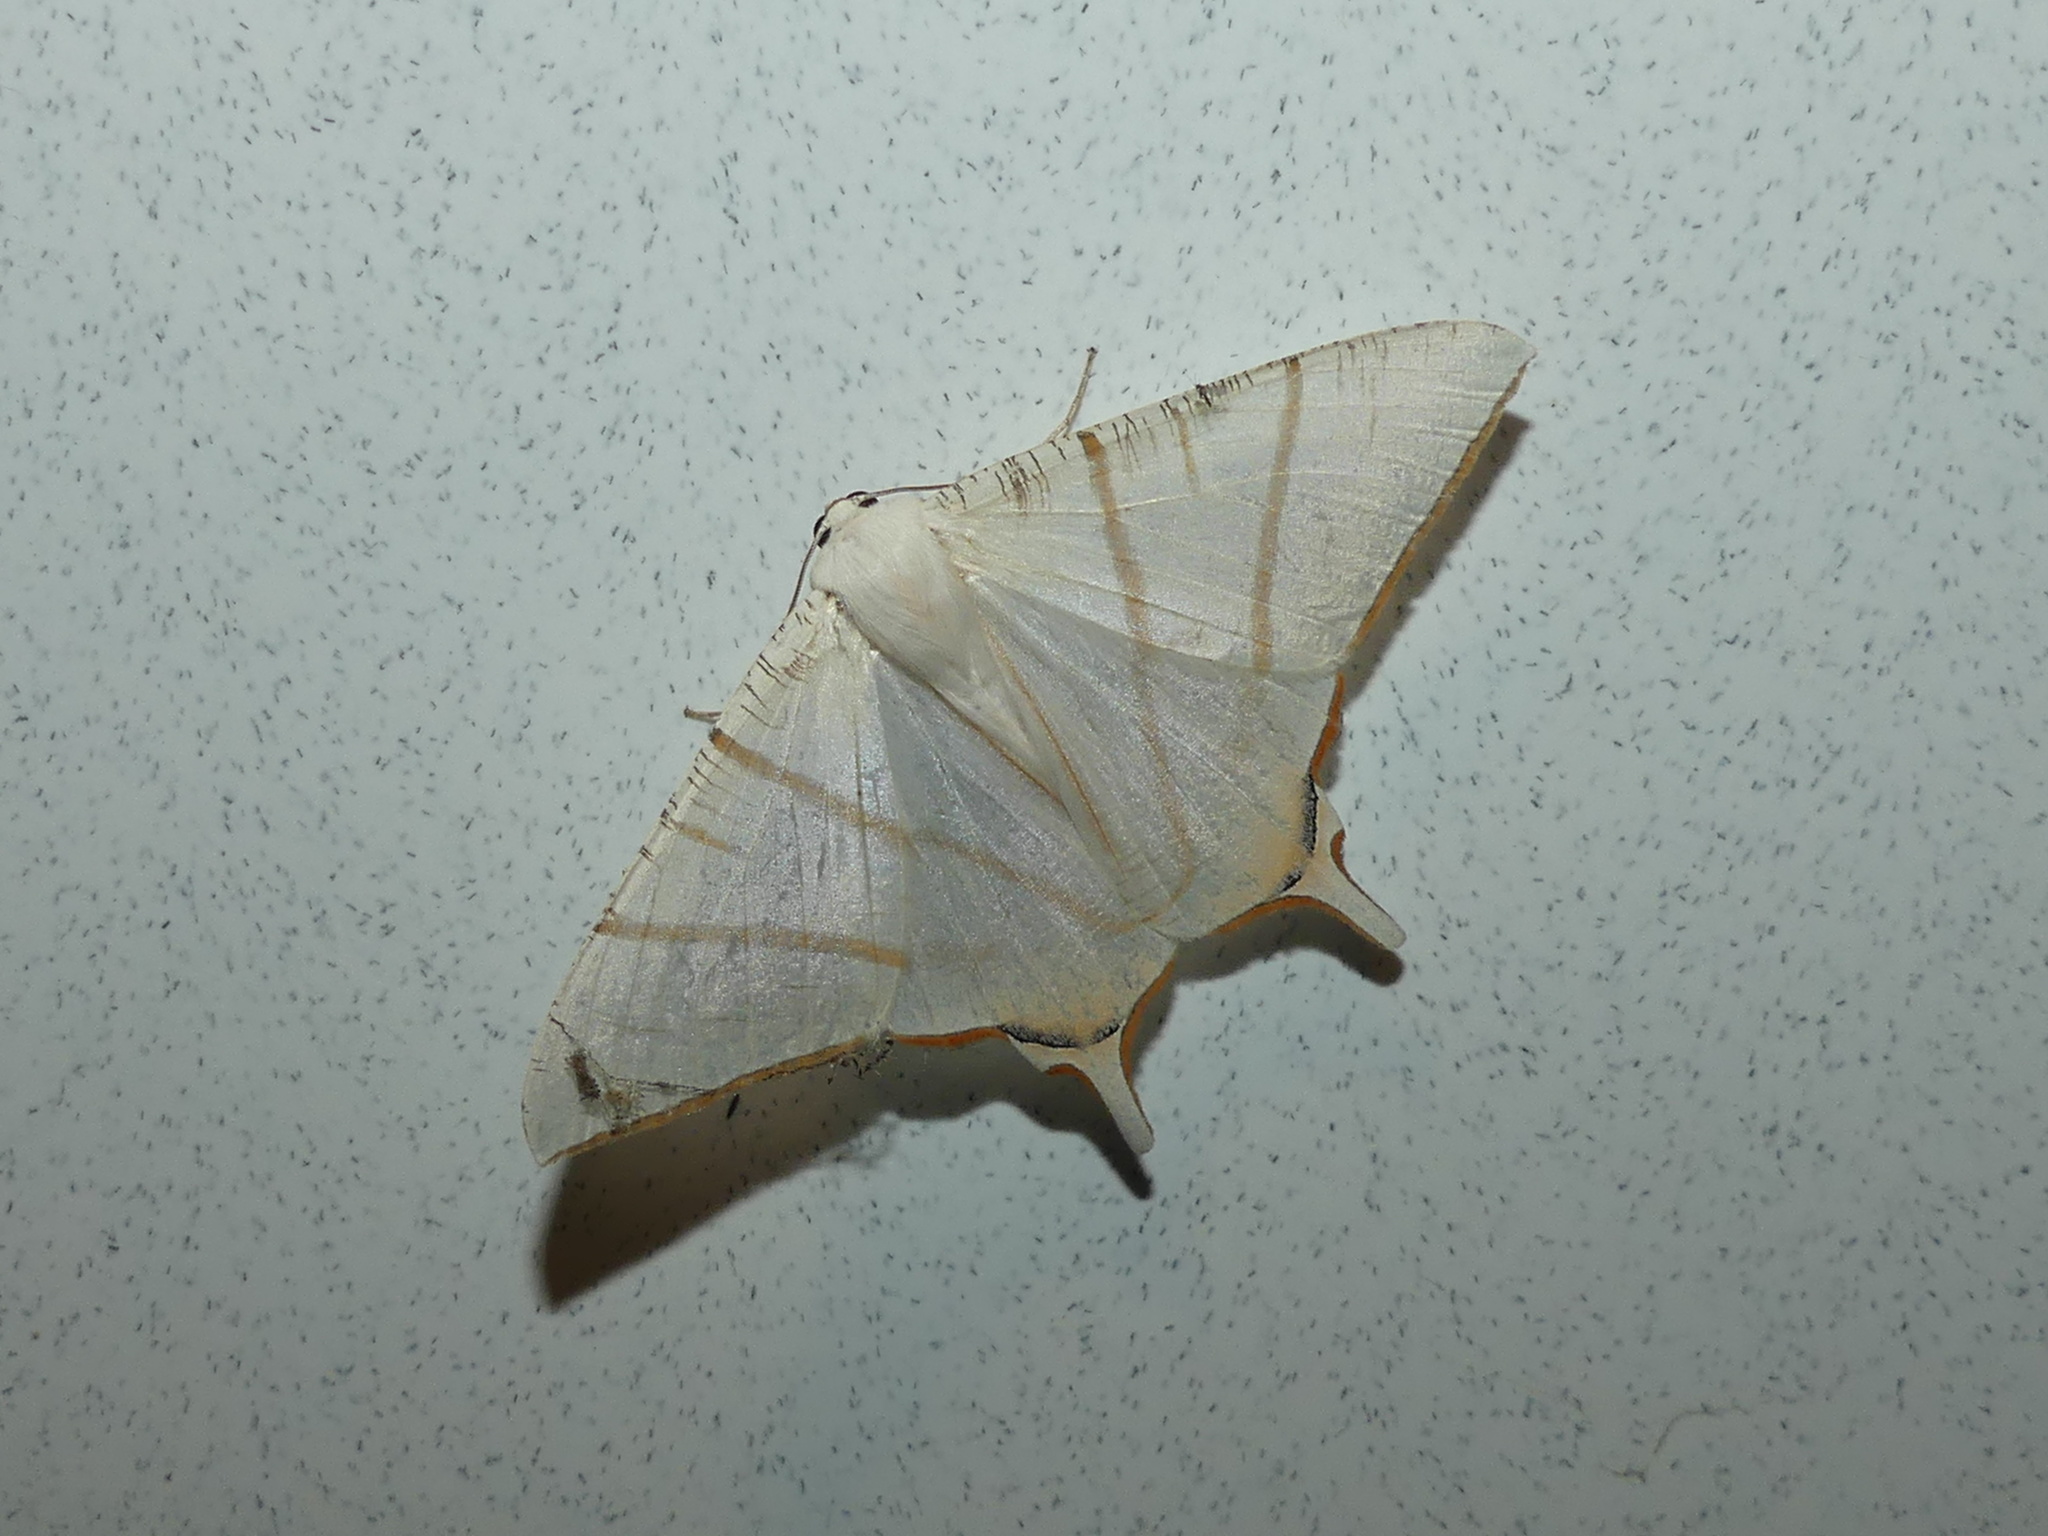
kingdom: Animalia
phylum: Arthropoda
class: Insecta
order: Lepidoptera
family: Geometridae
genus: Ourapteryx
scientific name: Ourapteryx claretta
